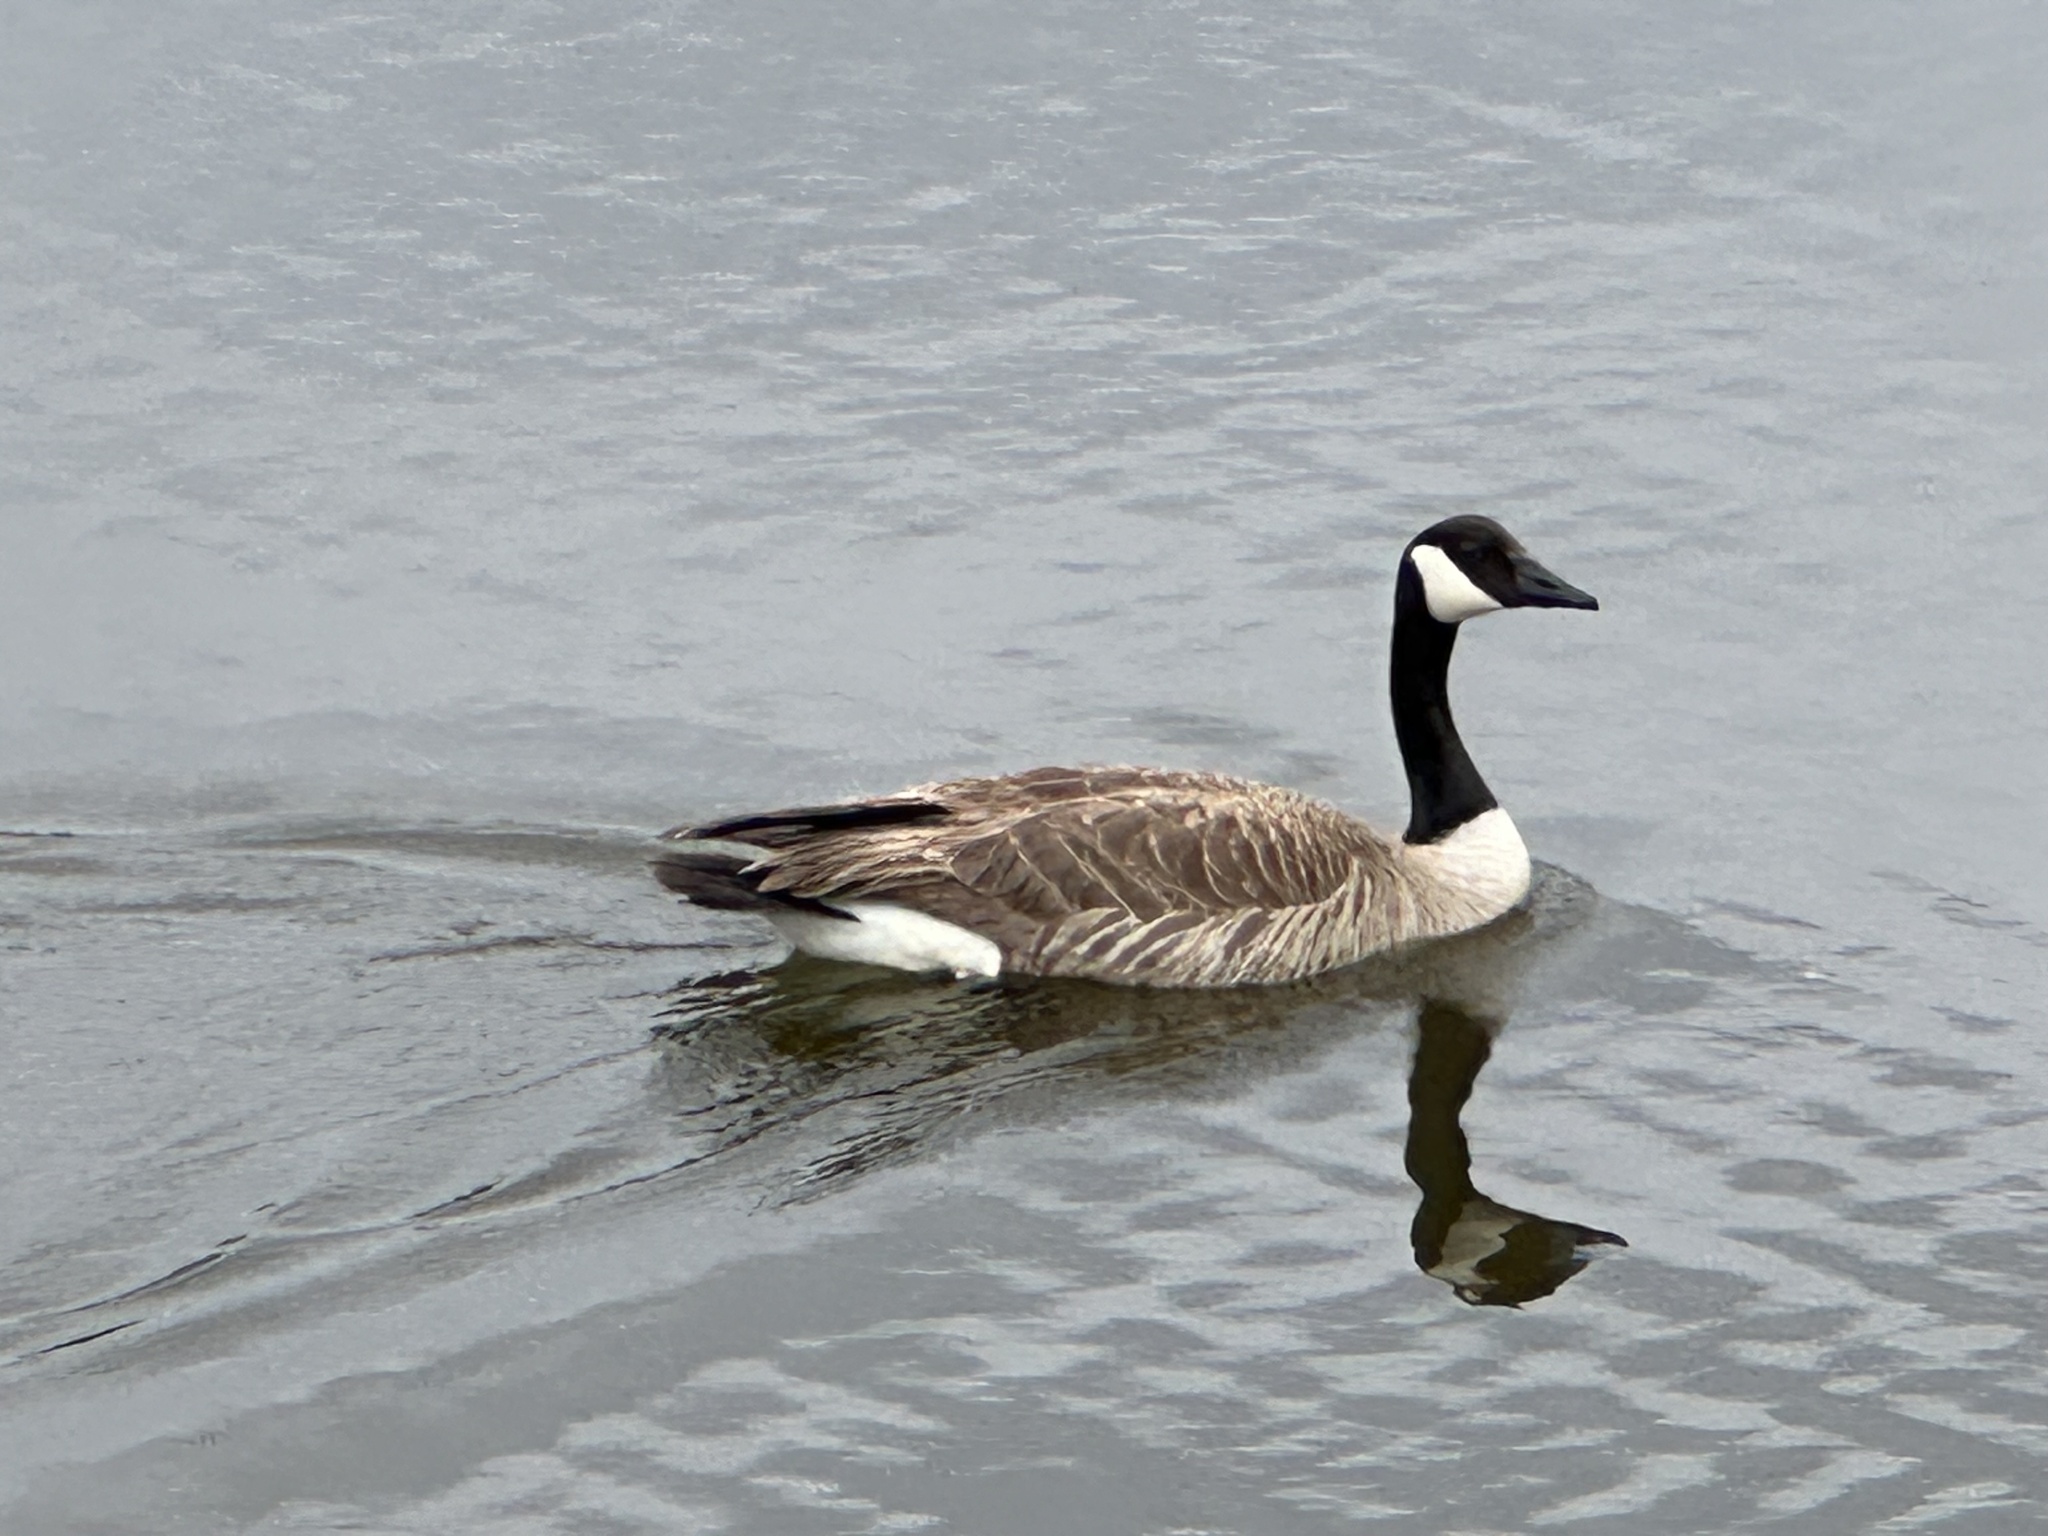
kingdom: Animalia
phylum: Chordata
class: Aves
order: Anseriformes
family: Anatidae
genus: Branta
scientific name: Branta canadensis
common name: Canada goose
